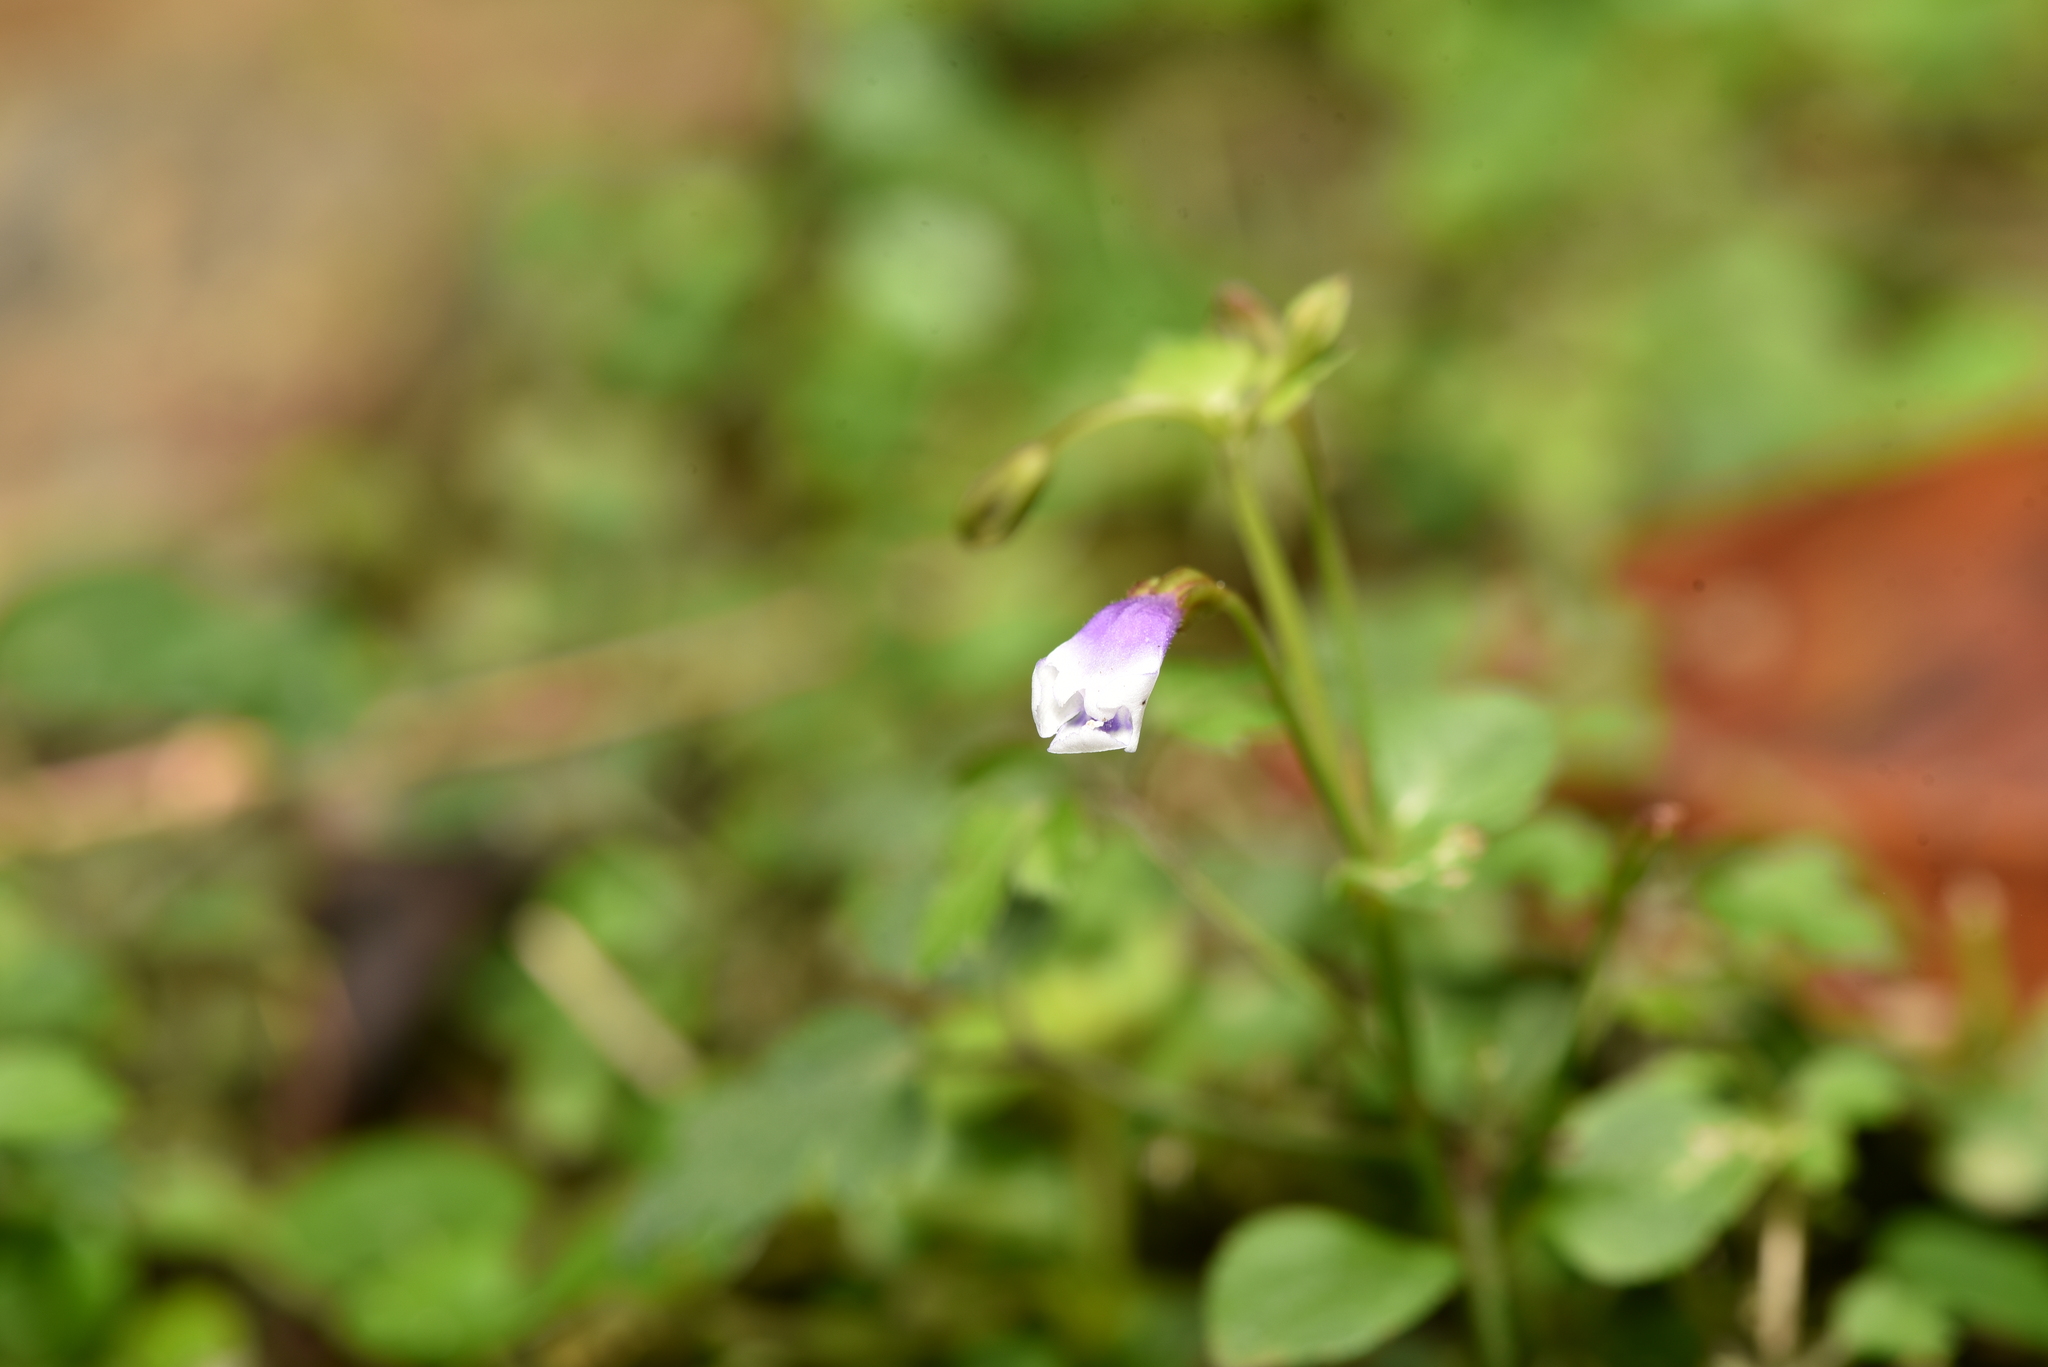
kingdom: Plantae
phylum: Tracheophyta
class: Magnoliopsida
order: Lamiales
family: Linderniaceae
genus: Torenia
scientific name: Torenia crustacea
